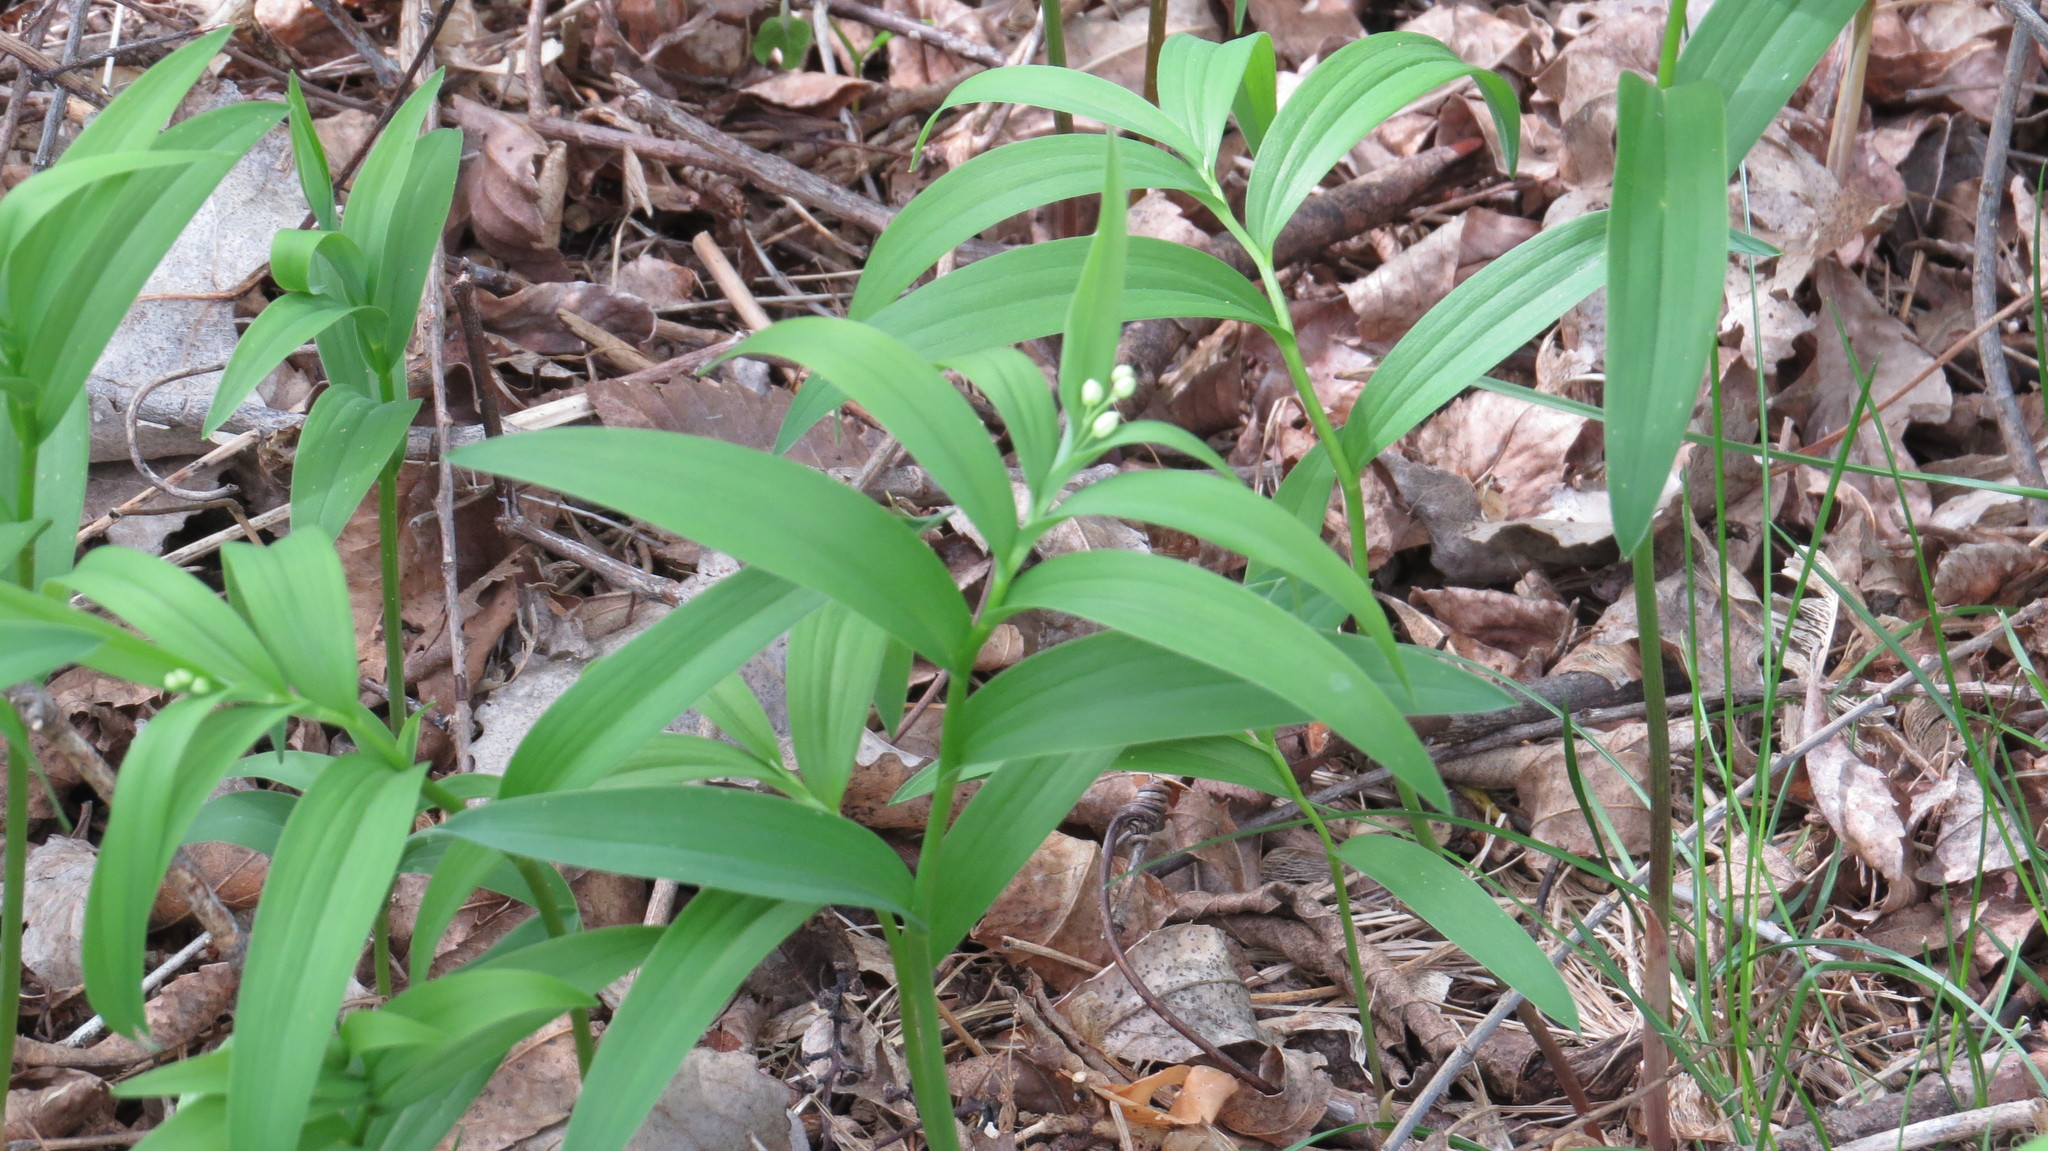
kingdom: Plantae
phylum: Tracheophyta
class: Liliopsida
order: Asparagales
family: Asparagaceae
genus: Maianthemum
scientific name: Maianthemum stellatum
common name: Little false solomon's seal
